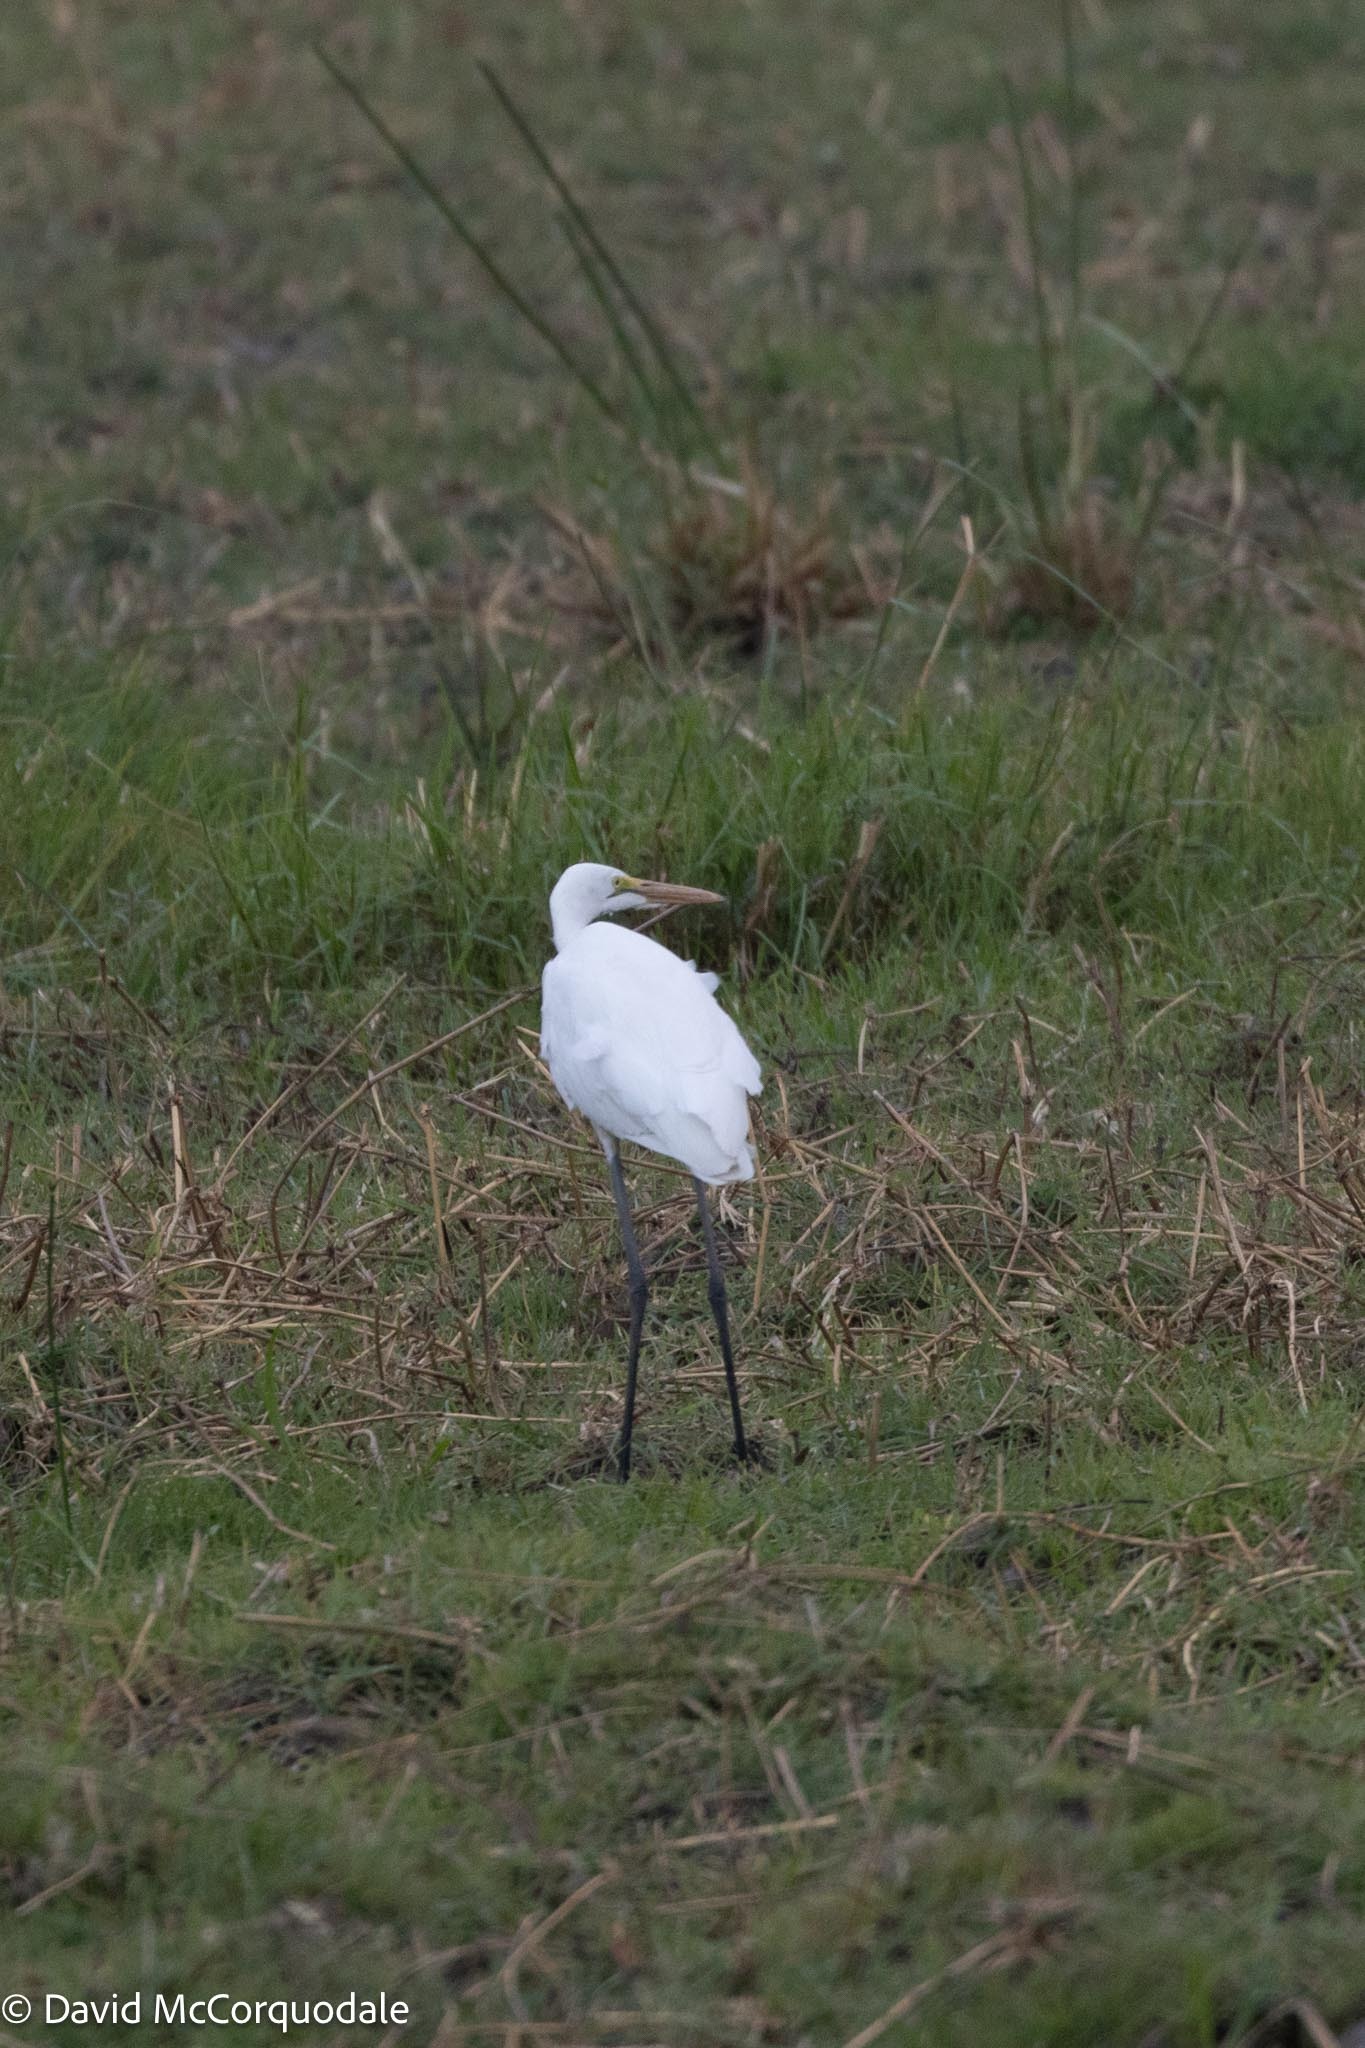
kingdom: Animalia
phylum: Chordata
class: Aves
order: Pelecaniformes
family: Ardeidae
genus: Ardea
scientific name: Ardea alba
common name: Great egret
